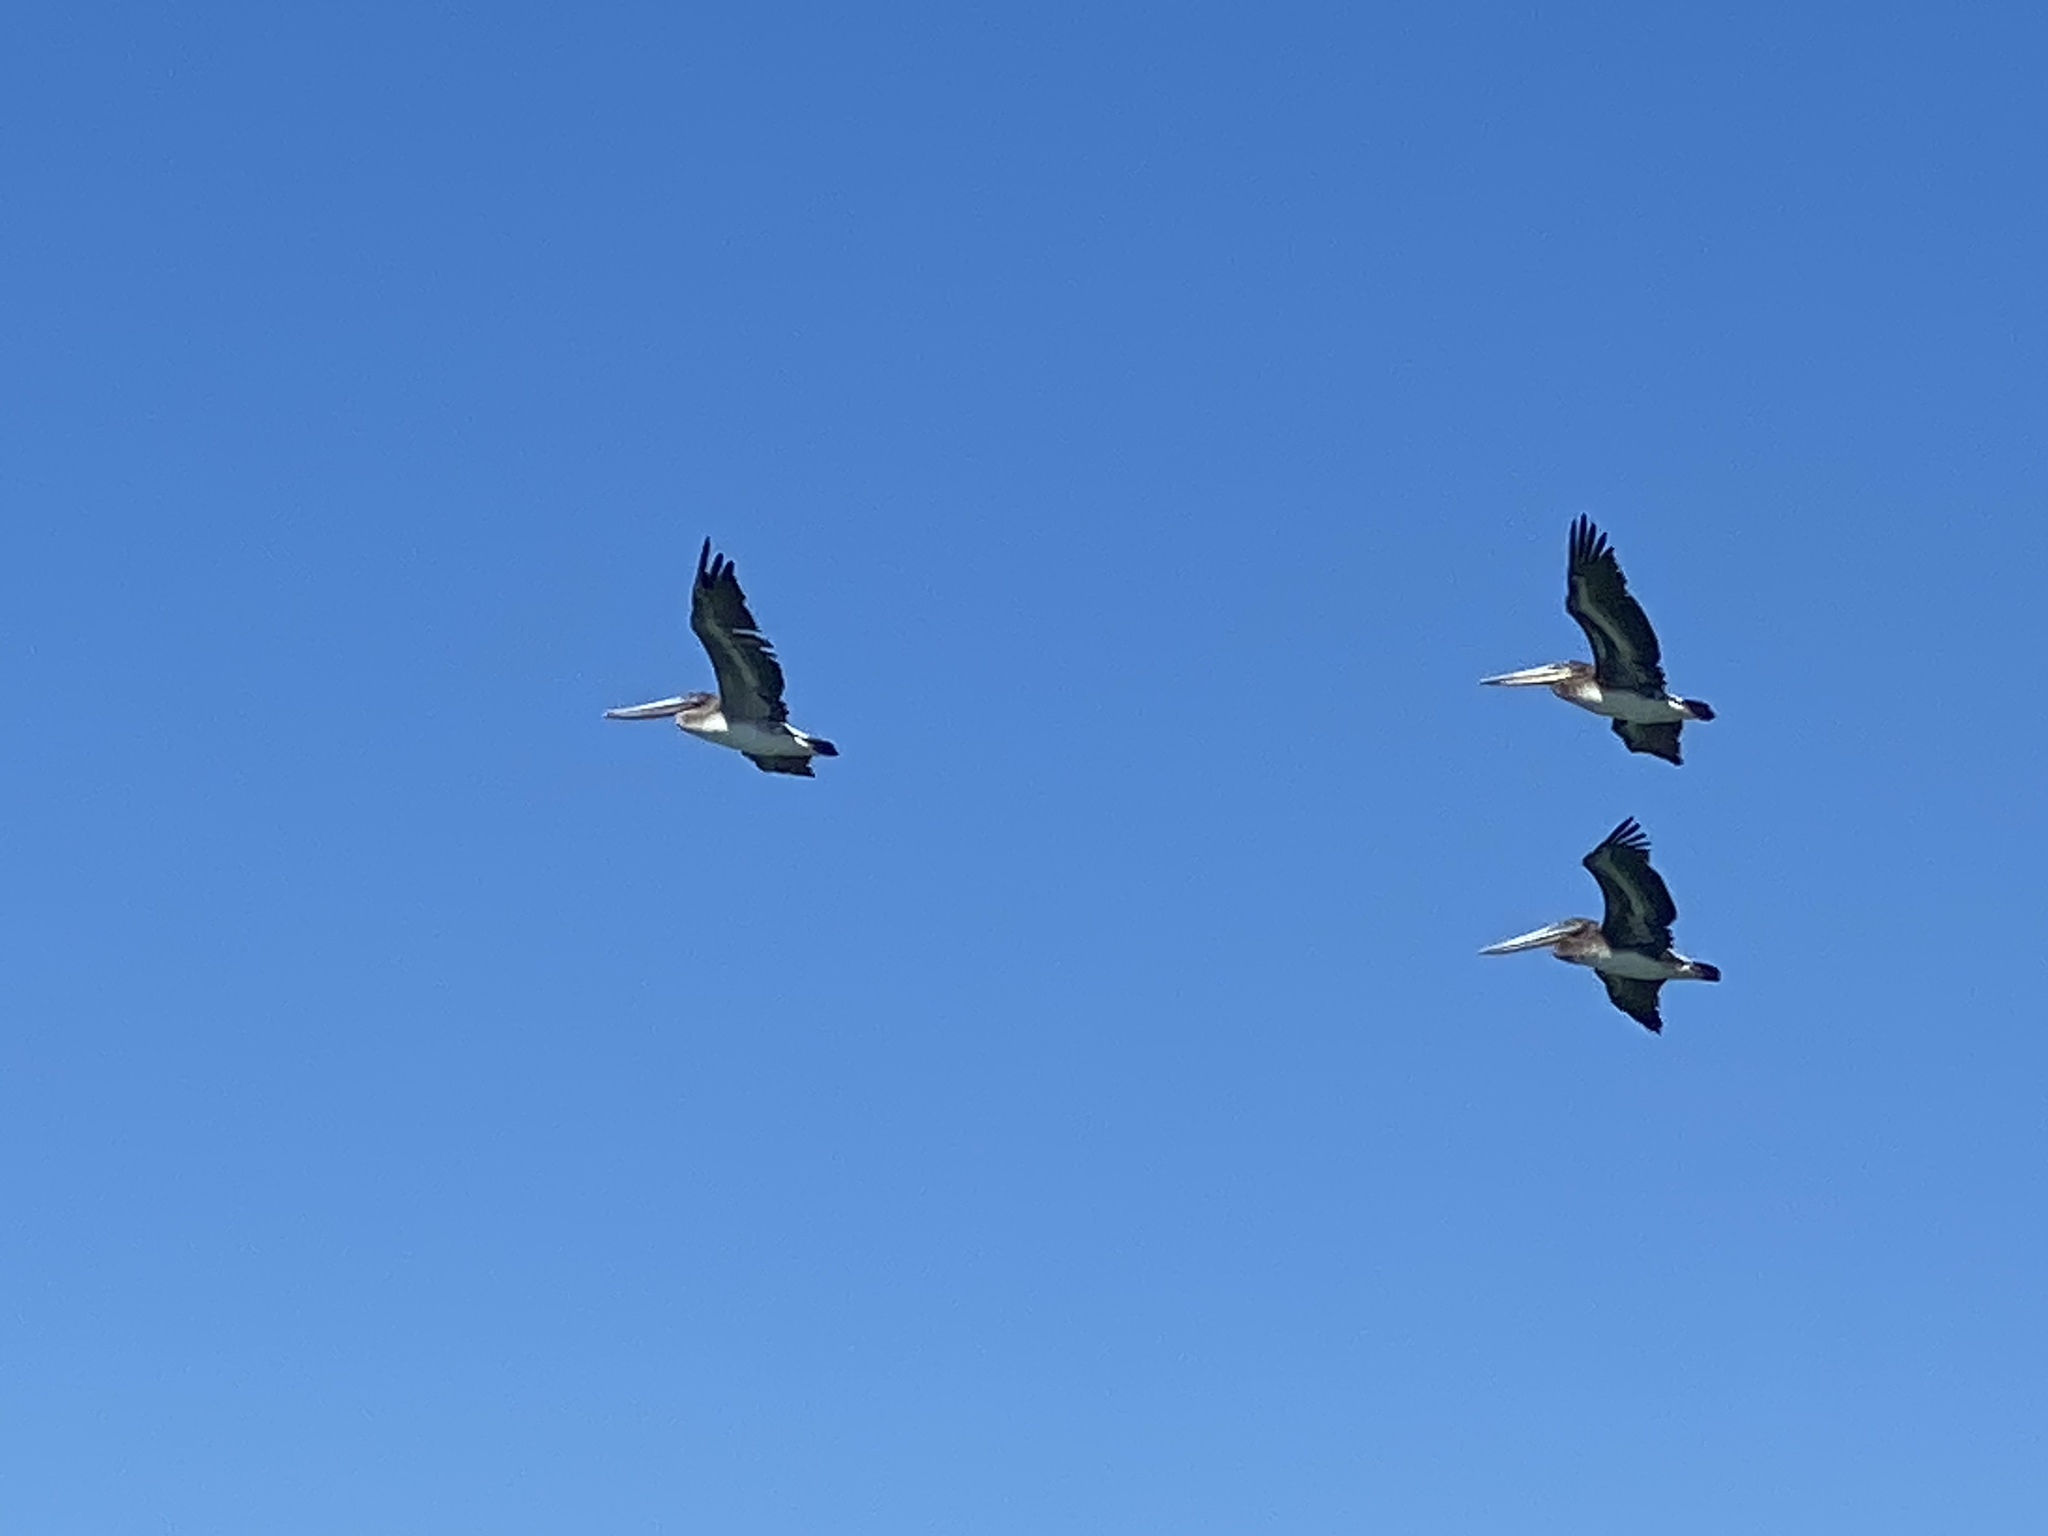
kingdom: Animalia
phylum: Chordata
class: Aves
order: Pelecaniformes
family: Pelecanidae
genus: Pelecanus
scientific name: Pelecanus occidentalis
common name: Brown pelican
